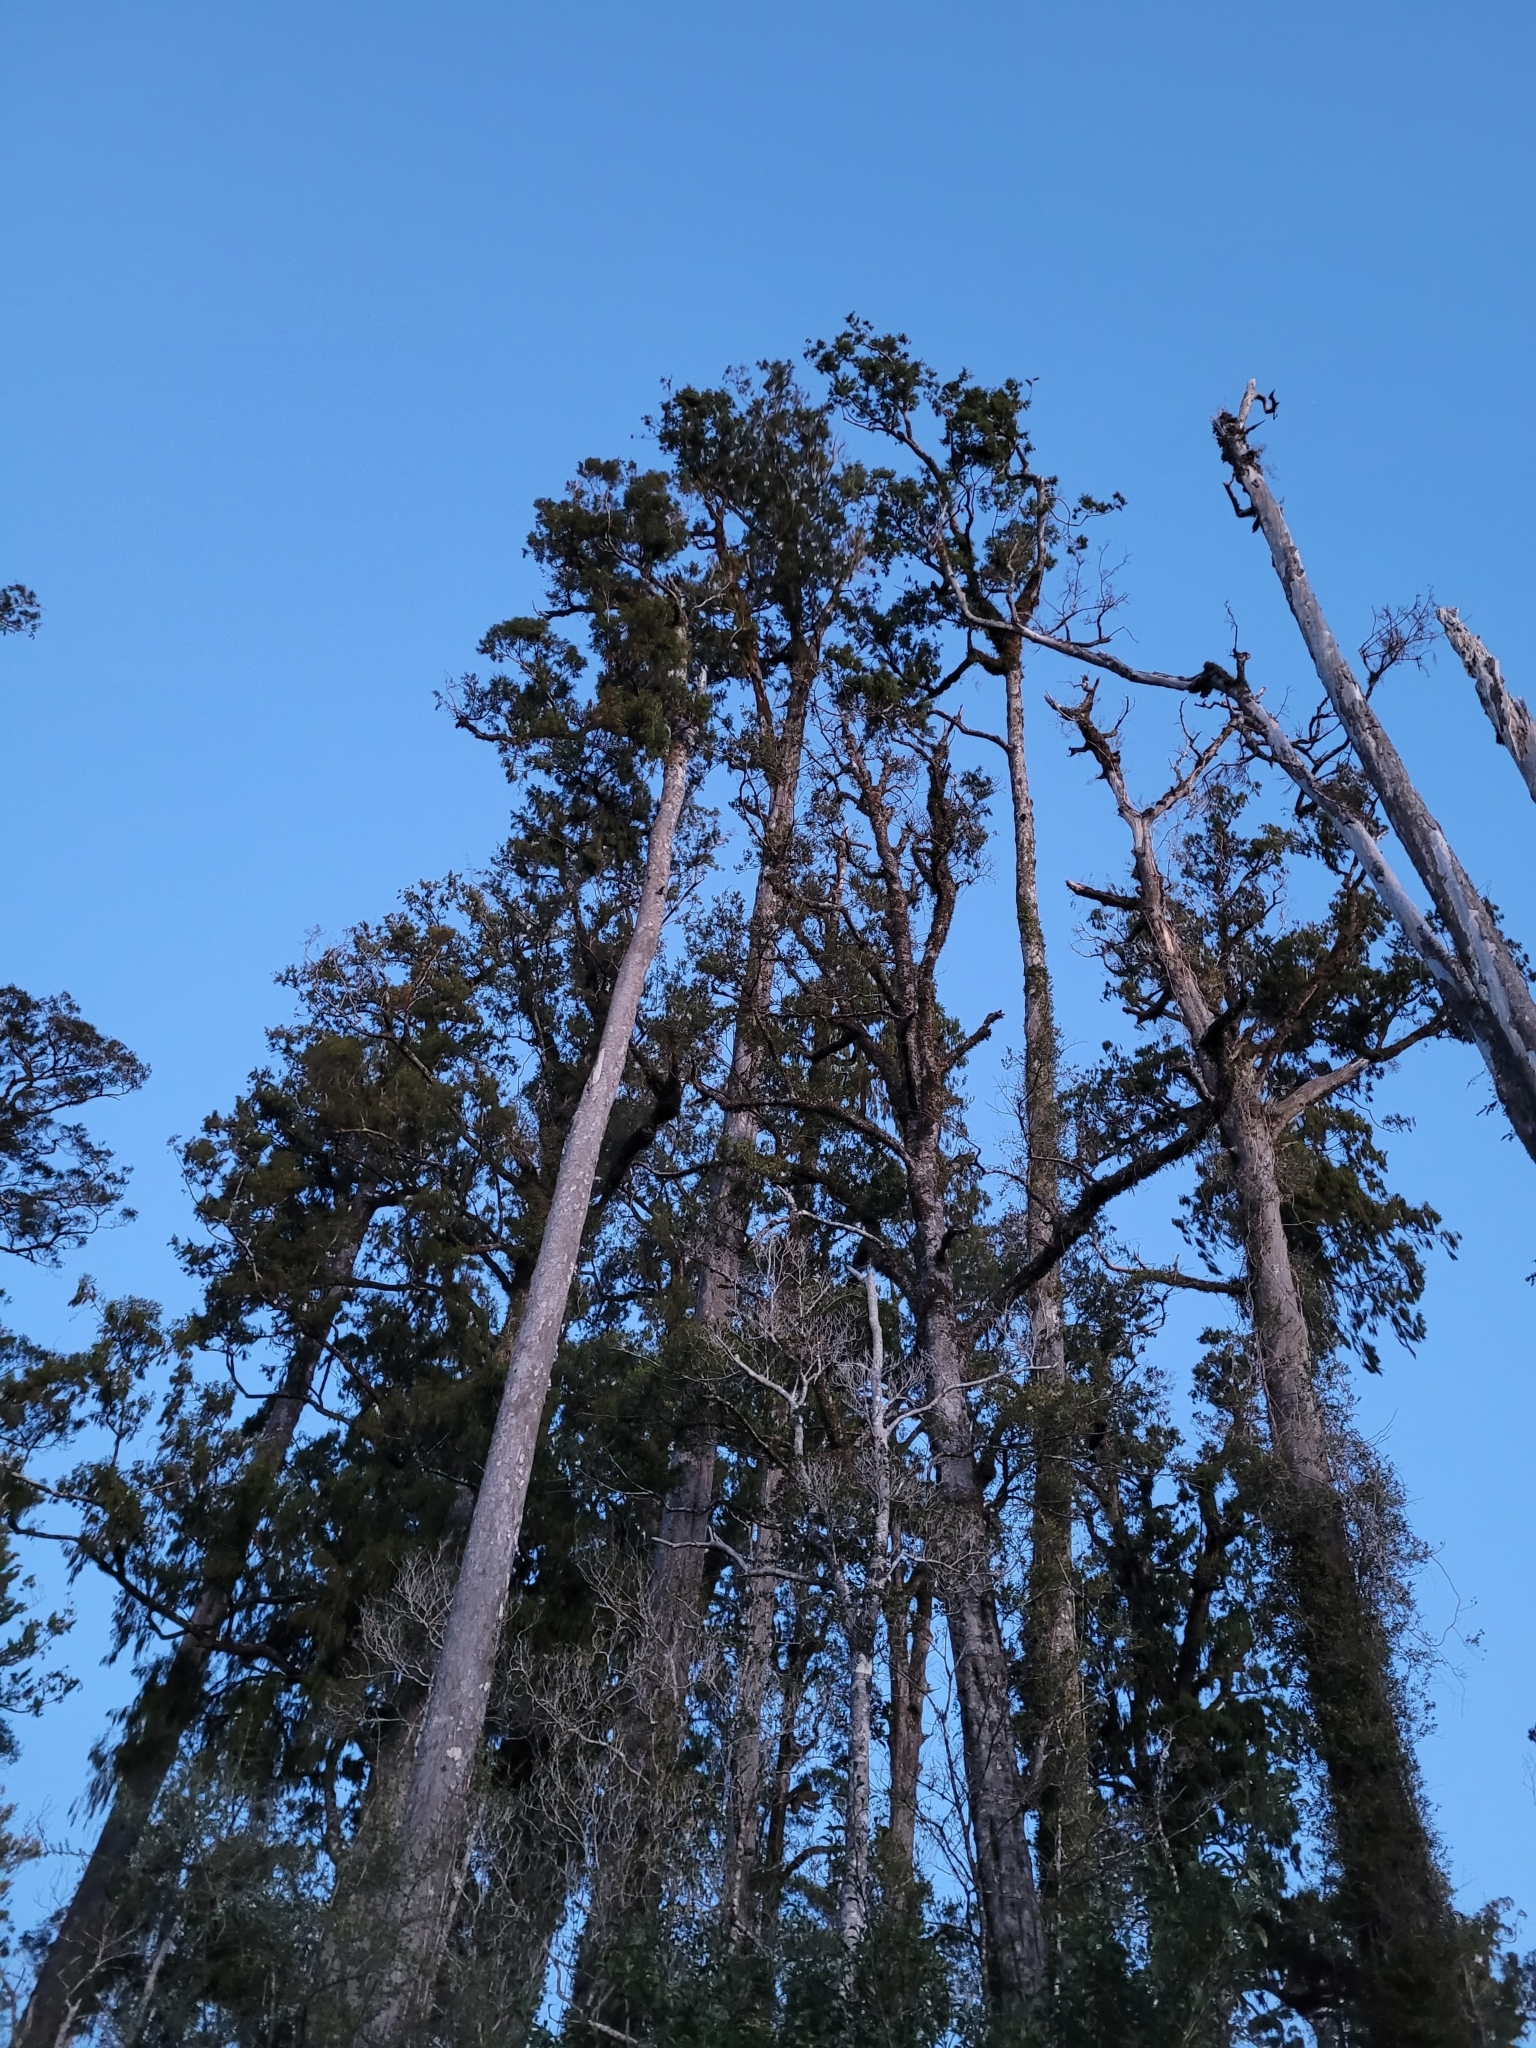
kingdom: Plantae
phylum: Tracheophyta
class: Pinopsida
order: Pinales
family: Podocarpaceae
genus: Dacrydium
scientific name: Dacrydium cupressinum
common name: Red pine
